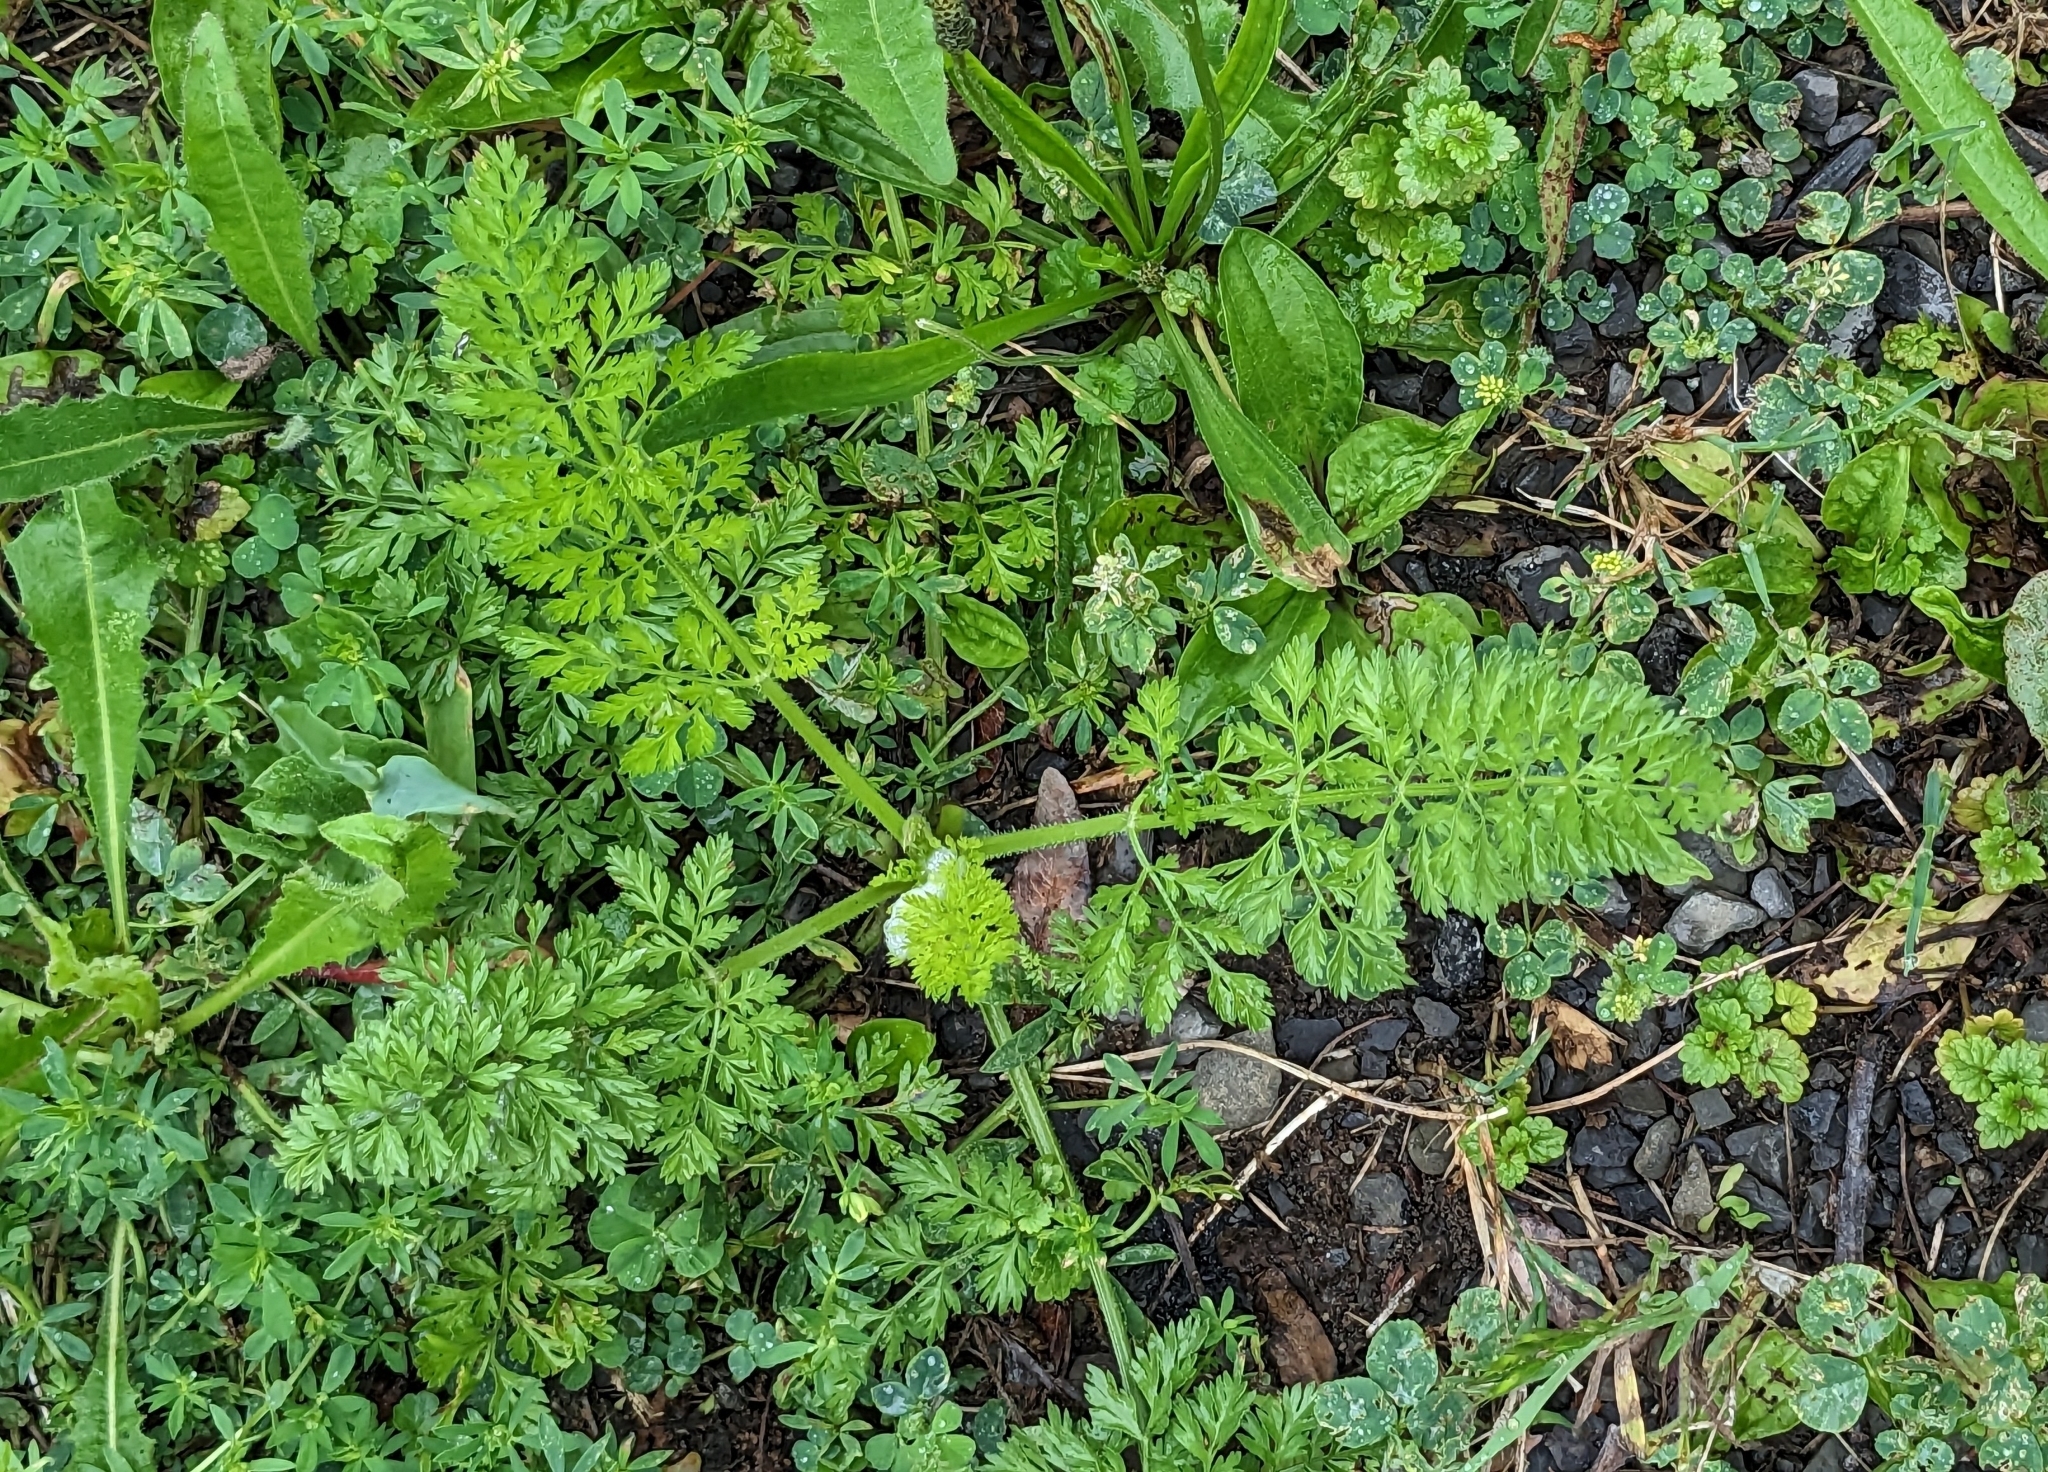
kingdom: Plantae
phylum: Tracheophyta
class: Magnoliopsida
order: Apiales
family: Apiaceae
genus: Daucus
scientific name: Daucus carota
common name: Wild carrot
